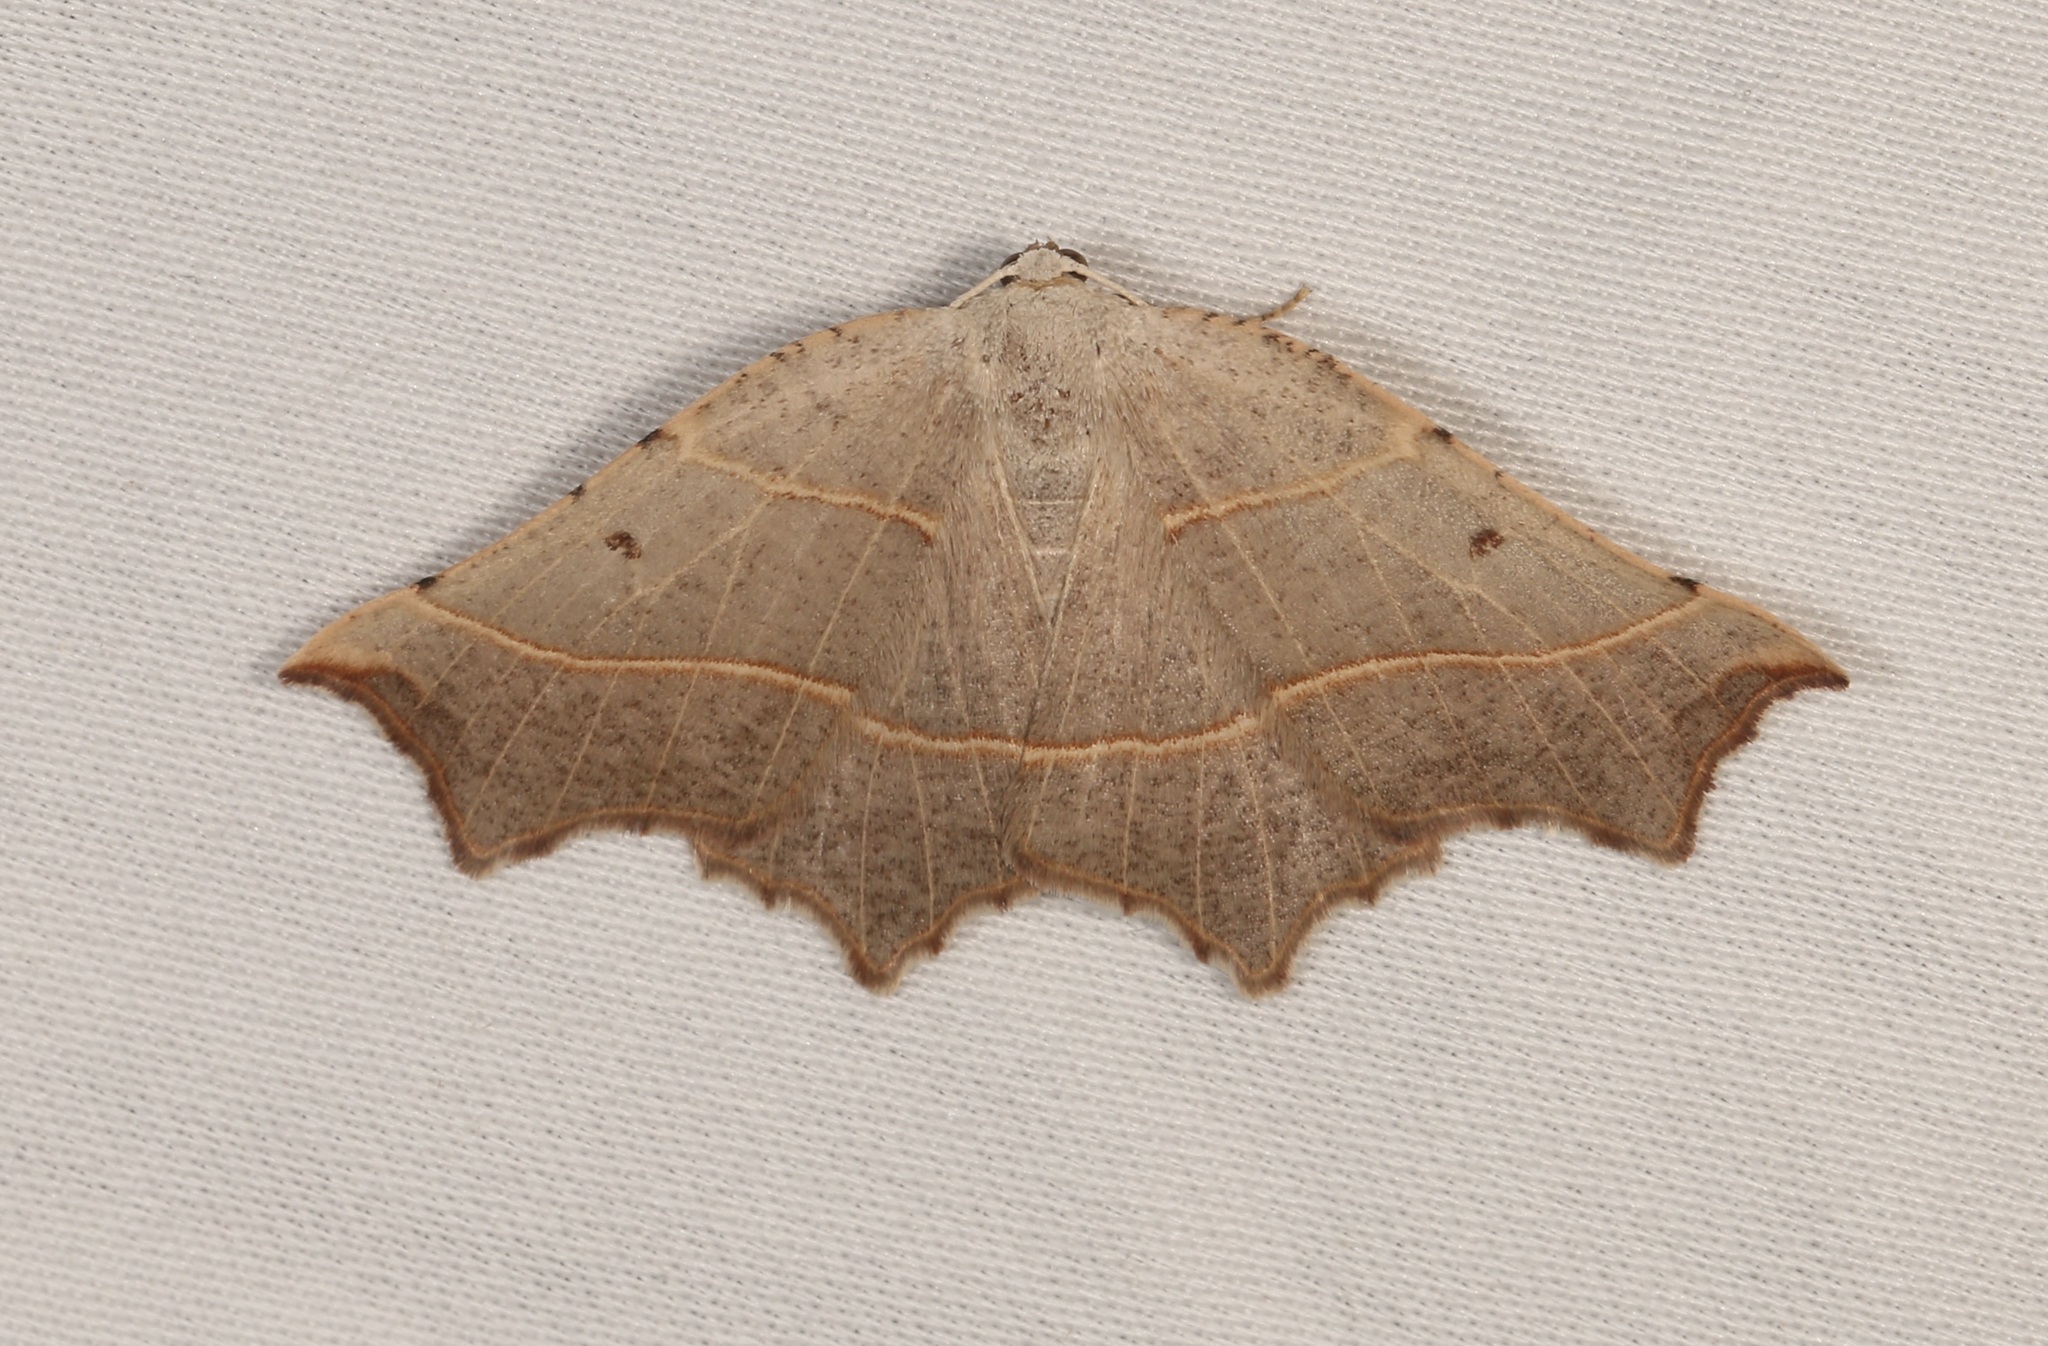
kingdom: Animalia
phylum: Arthropoda
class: Insecta
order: Lepidoptera
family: Geometridae
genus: Metanema
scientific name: Metanema inatomaria
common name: Pale metanema
